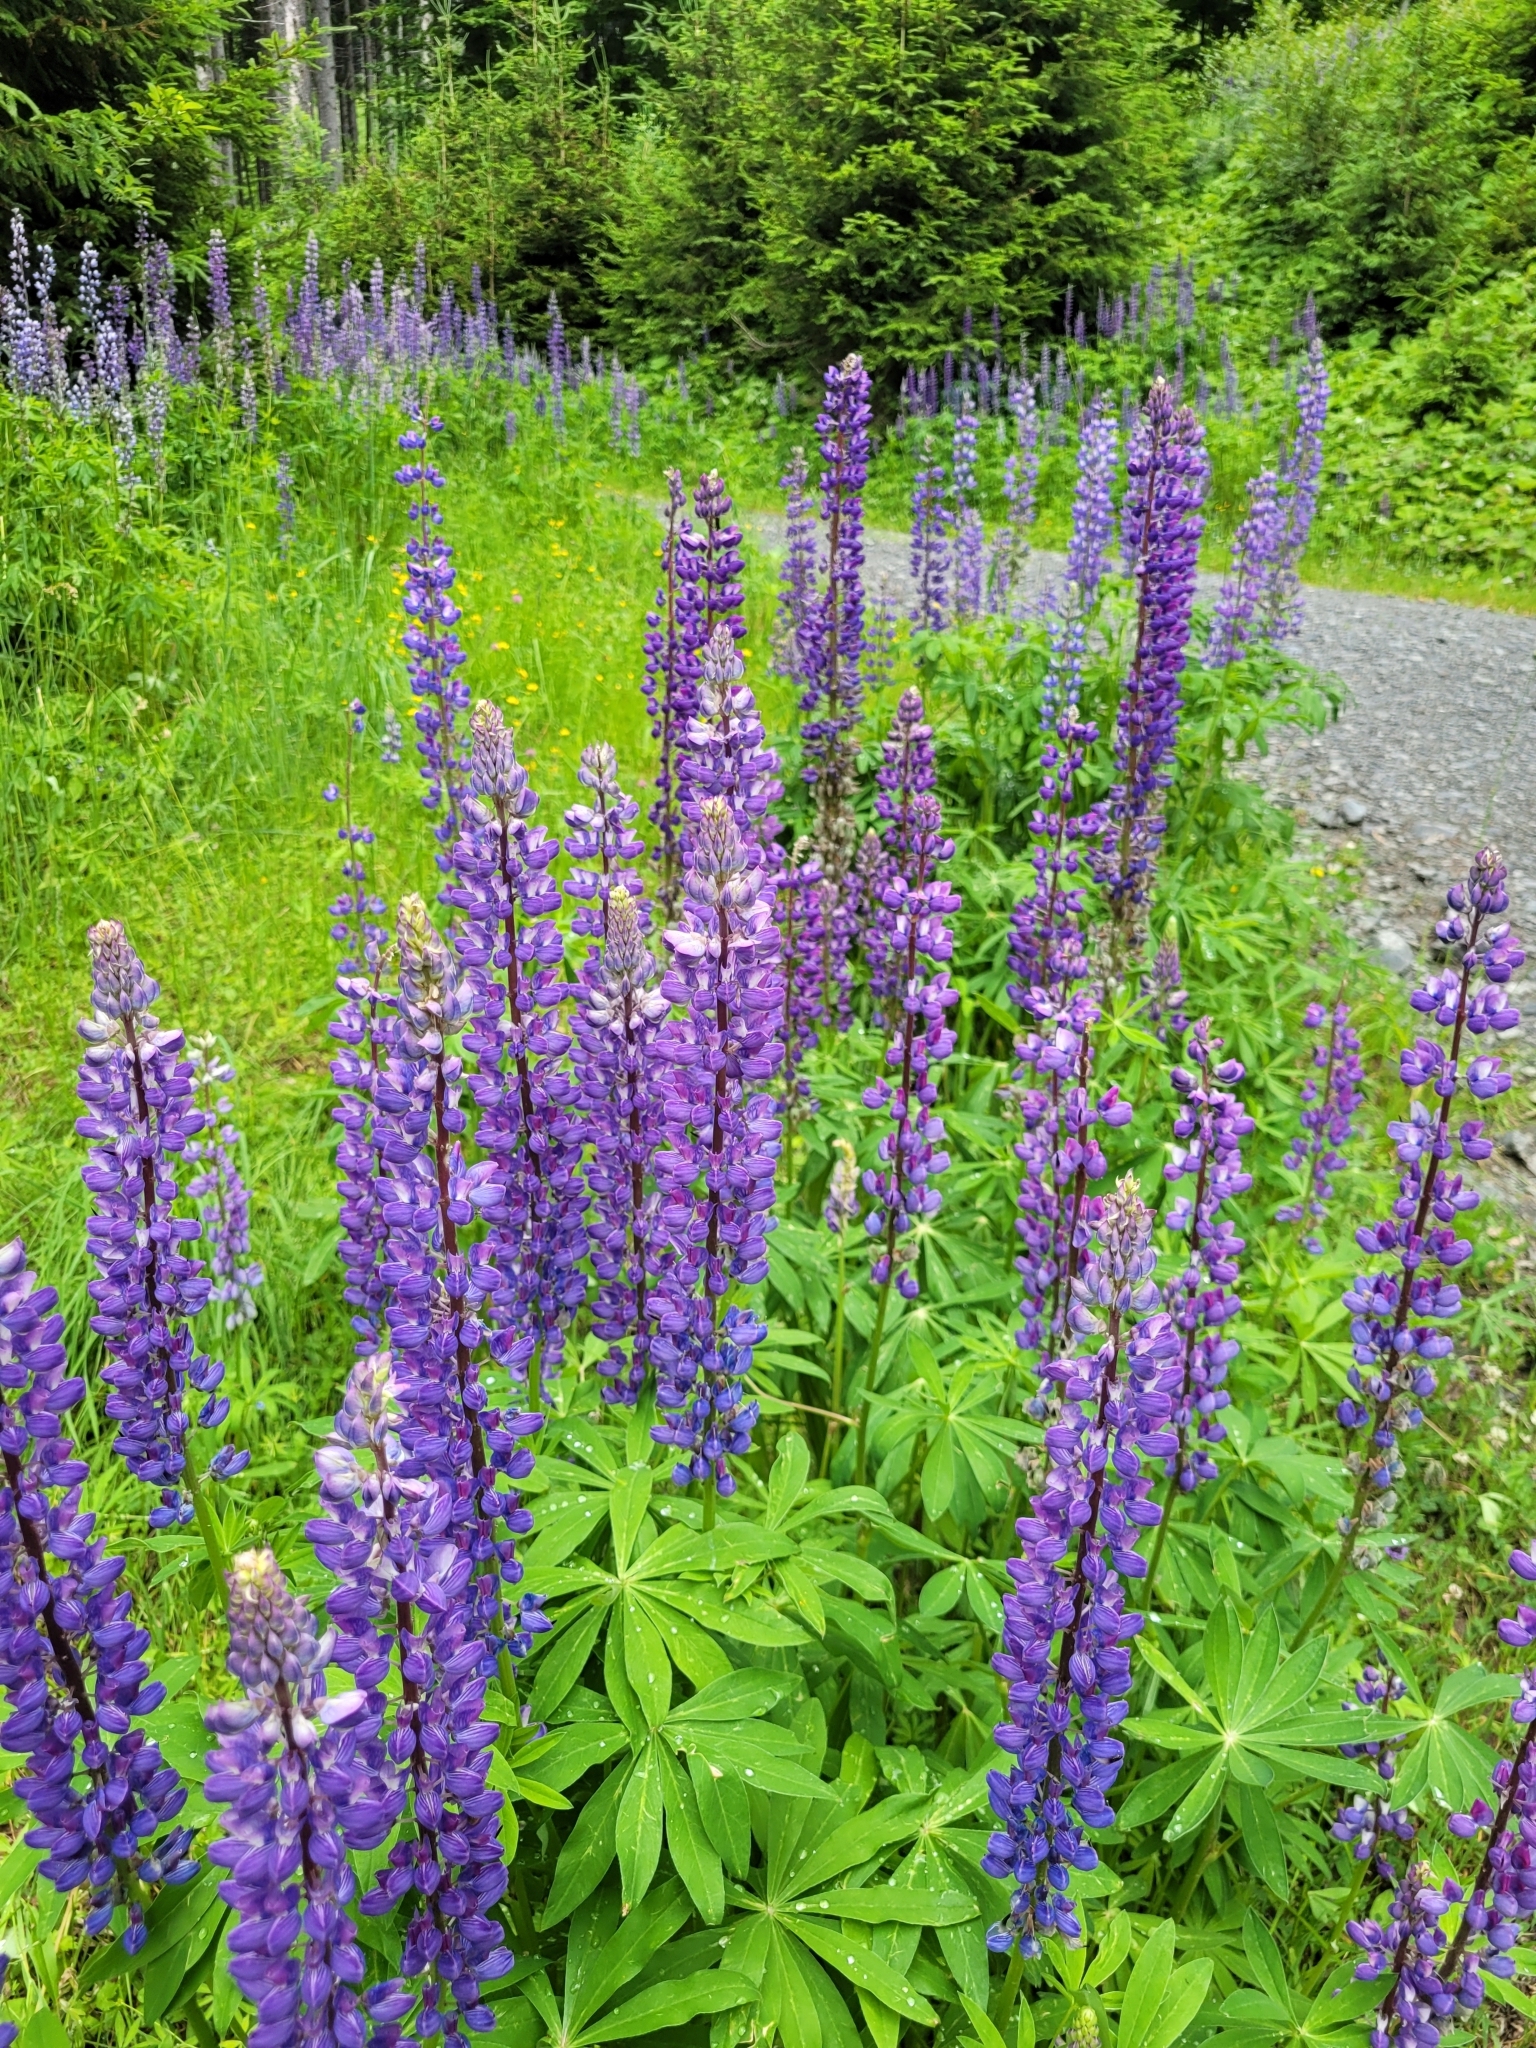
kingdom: Plantae
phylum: Tracheophyta
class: Magnoliopsida
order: Fabales
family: Fabaceae
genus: Lupinus
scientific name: Lupinus polyphyllus
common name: Garden lupin
